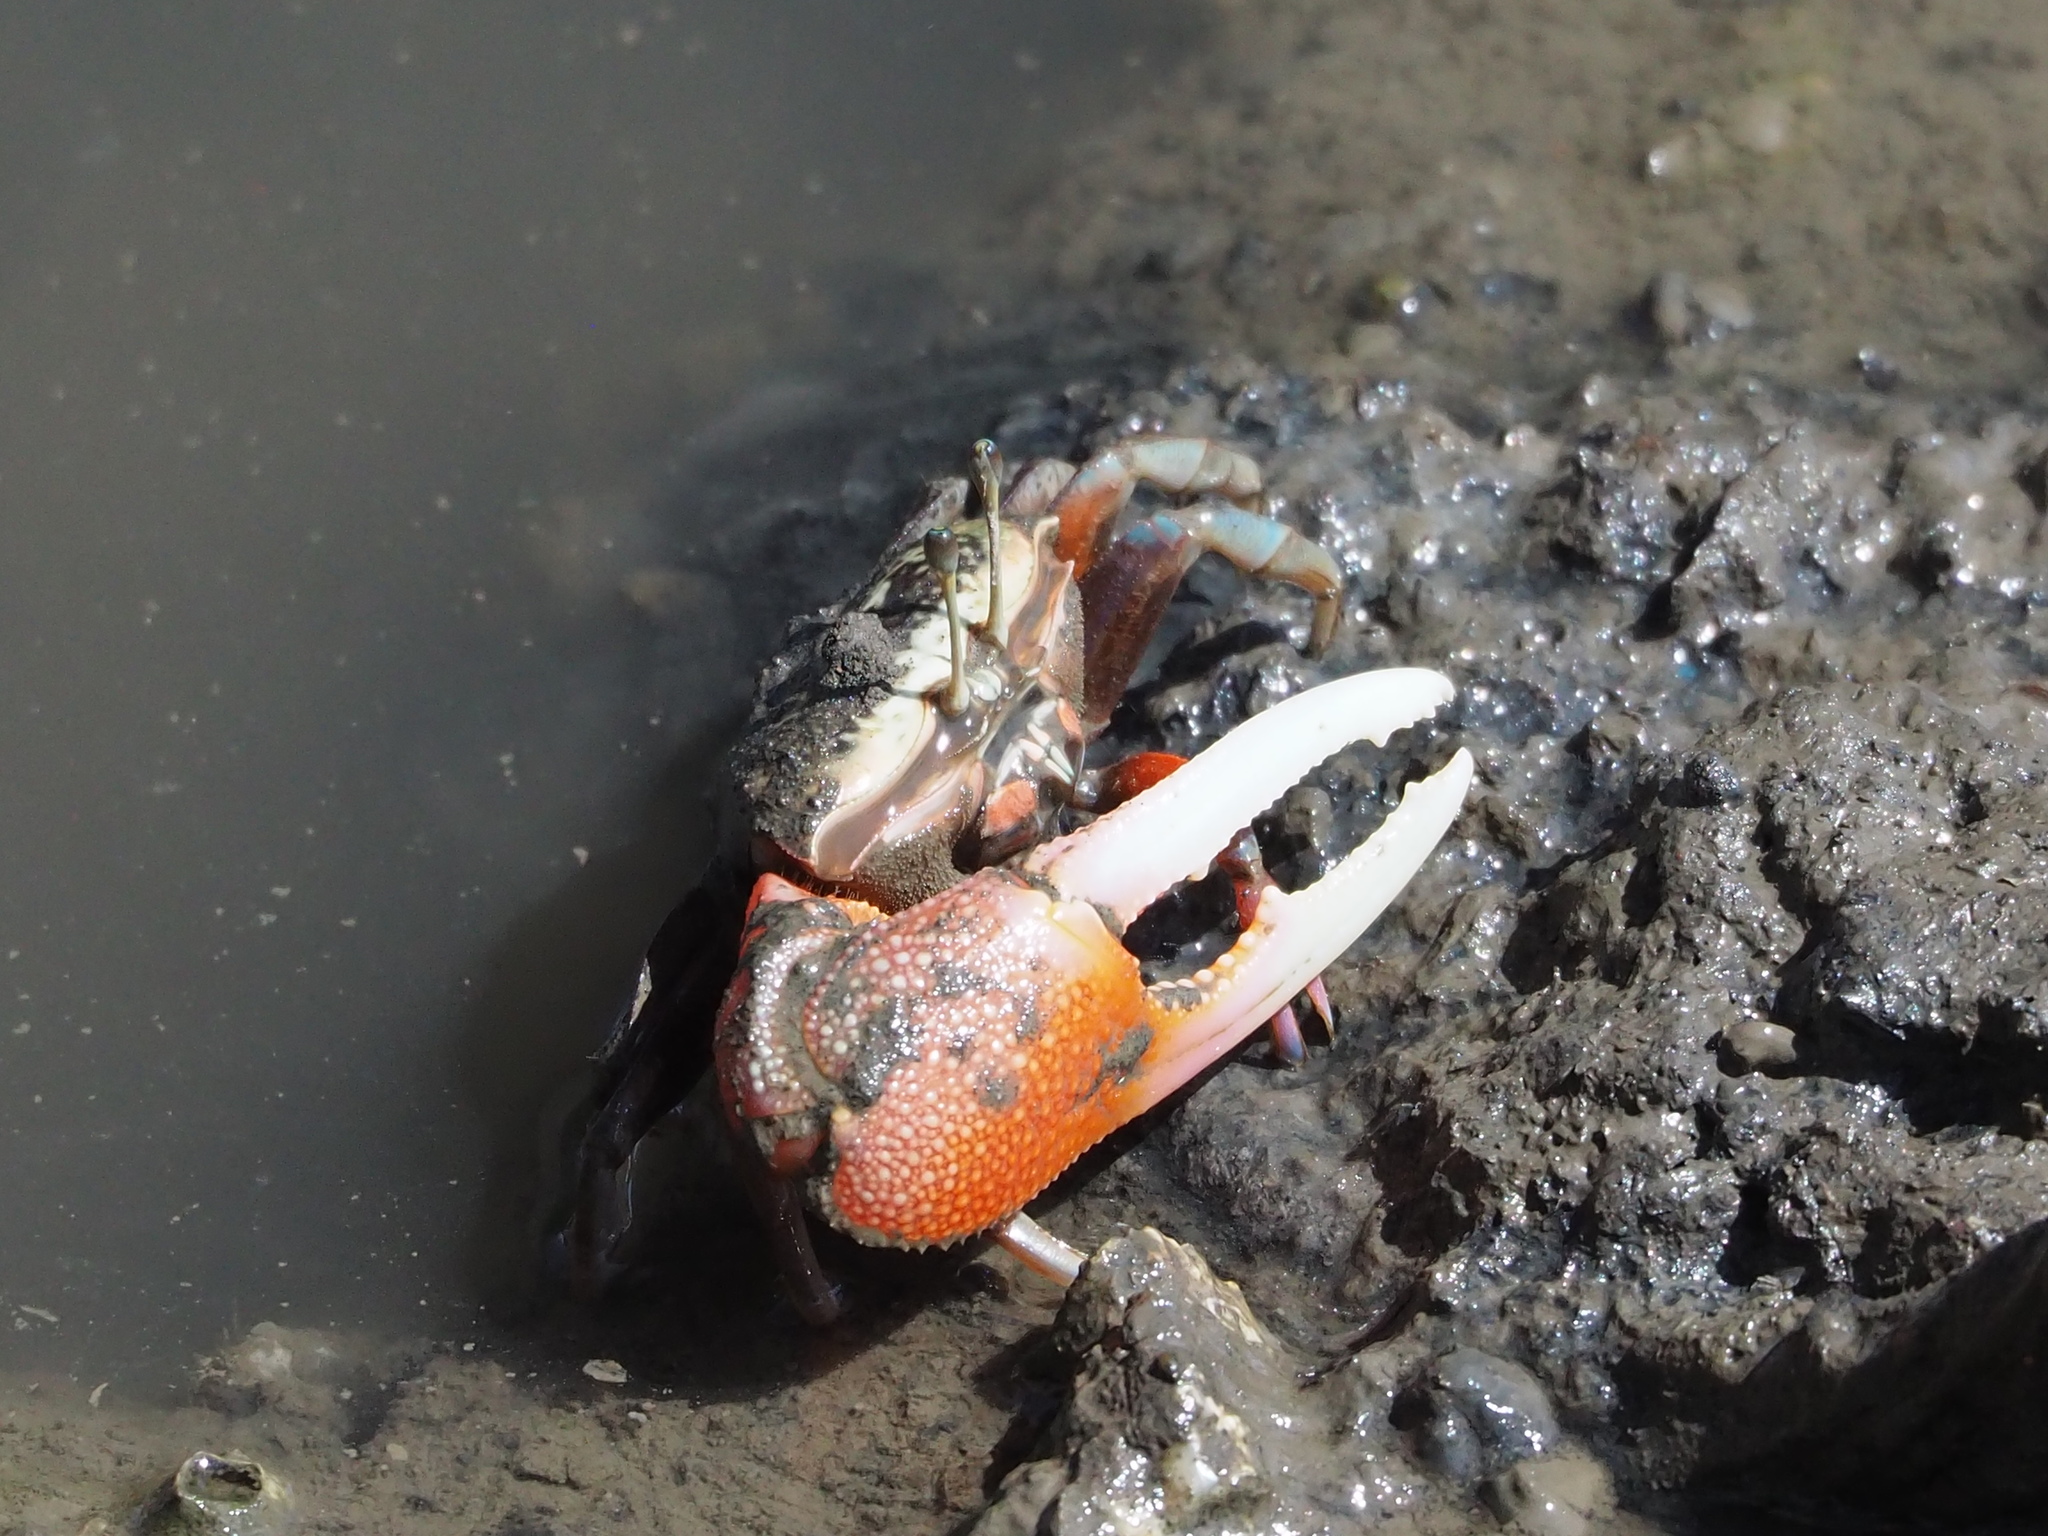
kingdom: Animalia
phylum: Arthropoda
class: Malacostraca
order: Decapoda
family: Ocypodidae
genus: Tubuca
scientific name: Tubuca arcuata
